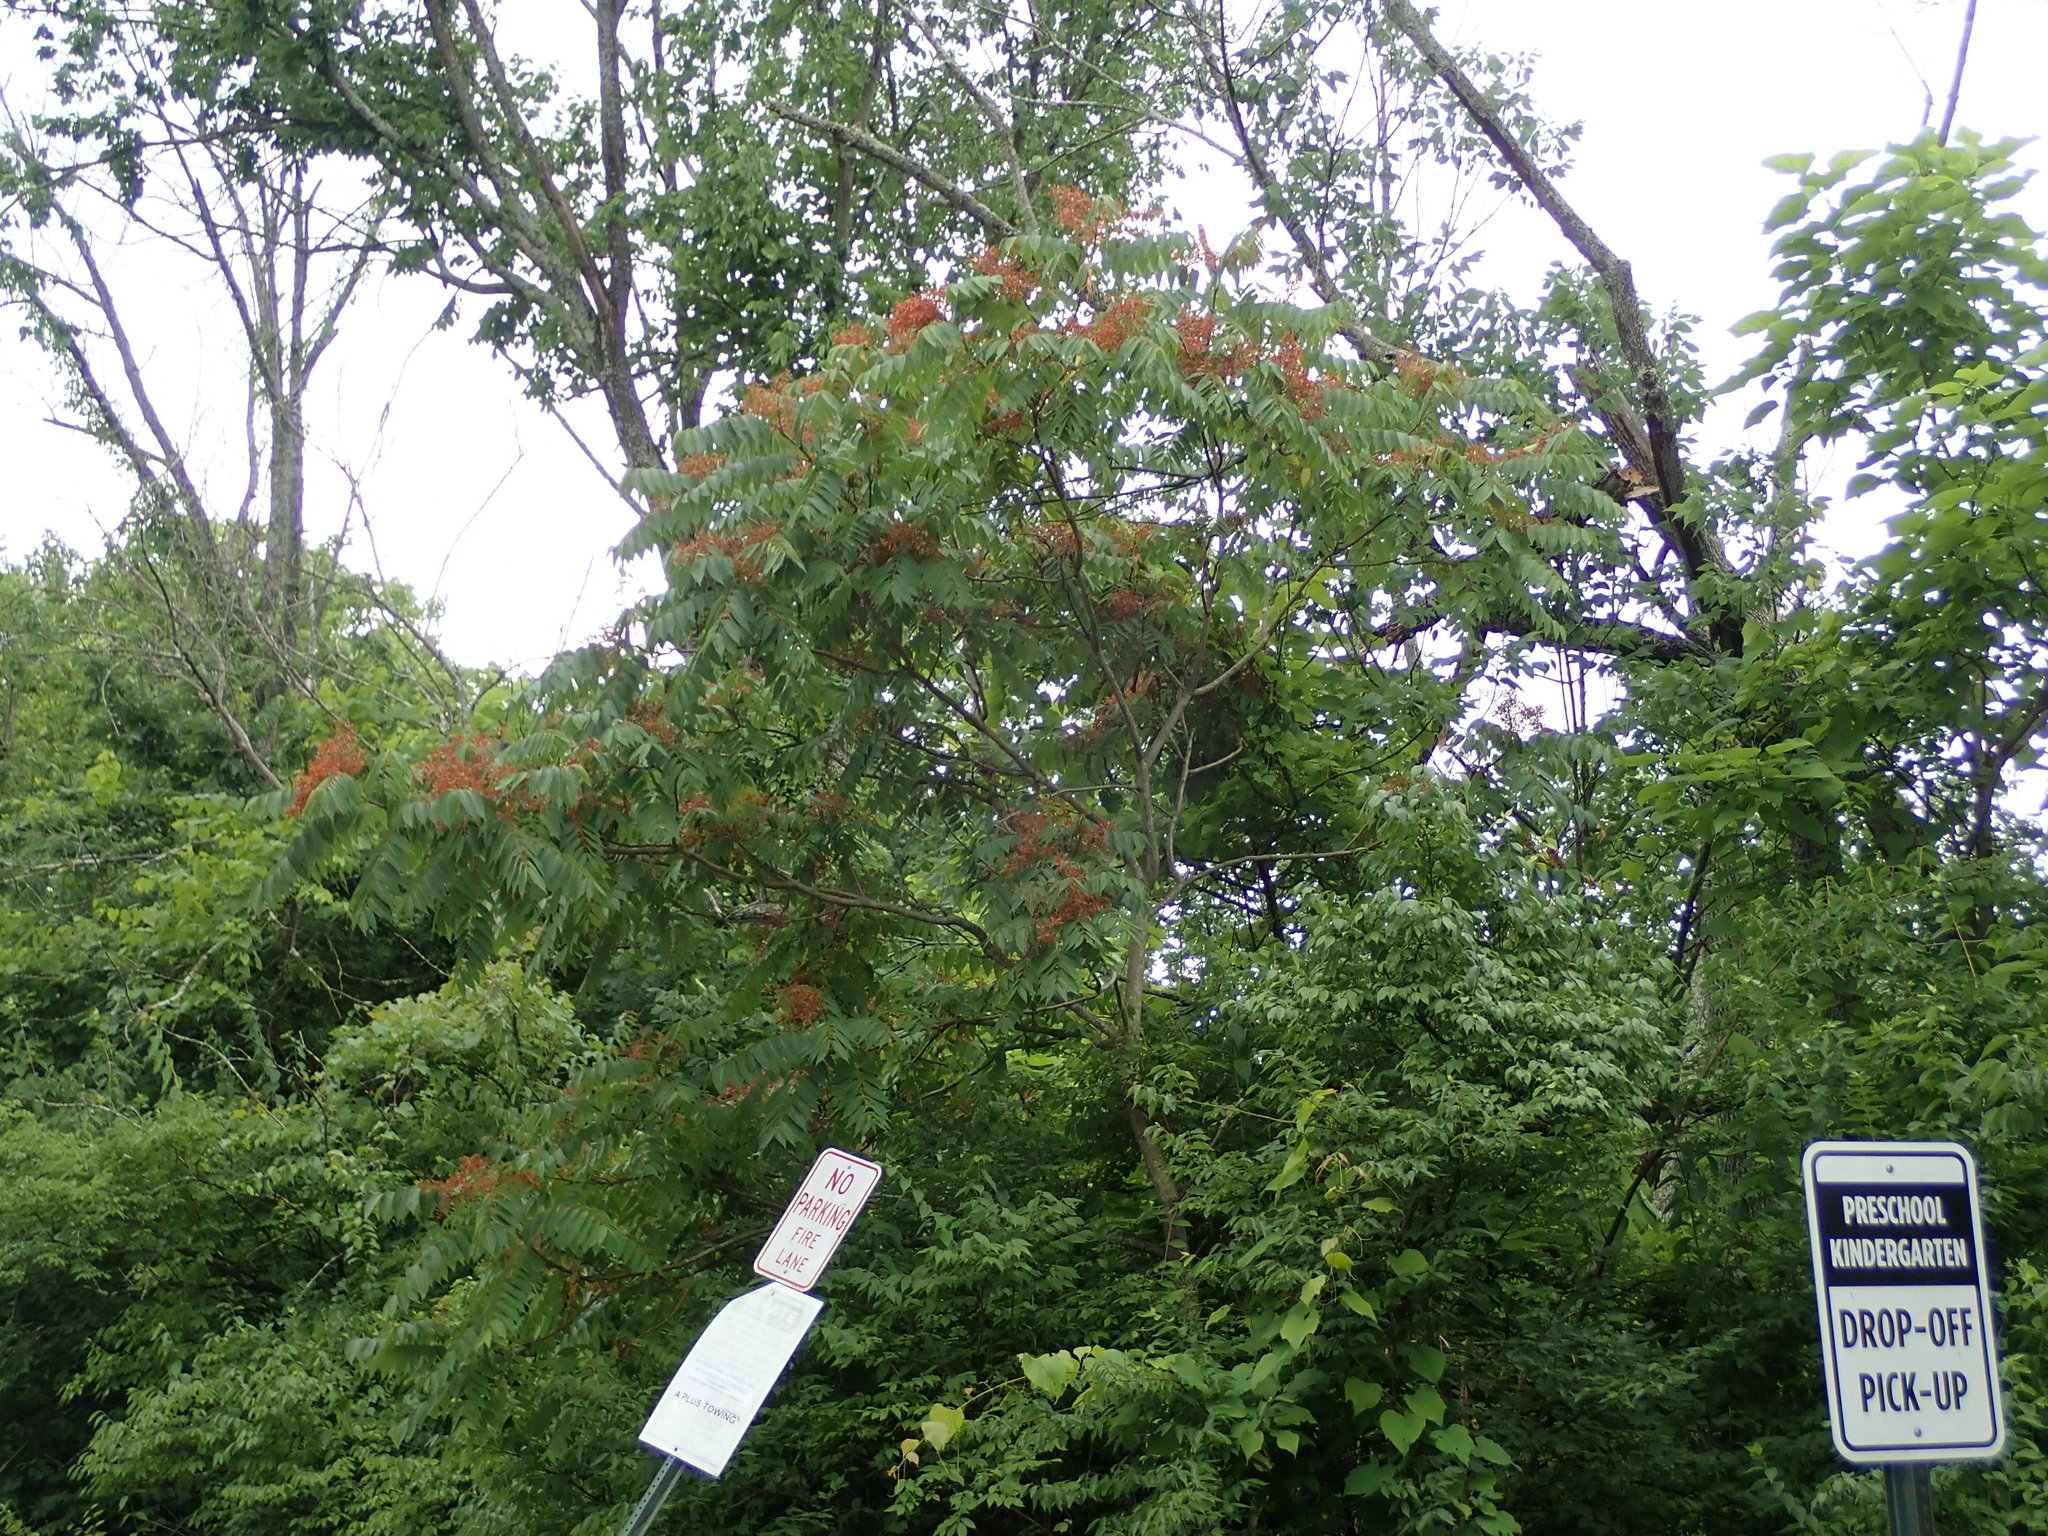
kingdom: Plantae
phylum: Tracheophyta
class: Magnoliopsida
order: Sapindales
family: Simaroubaceae
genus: Ailanthus
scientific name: Ailanthus altissima
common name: Tree-of-heaven
